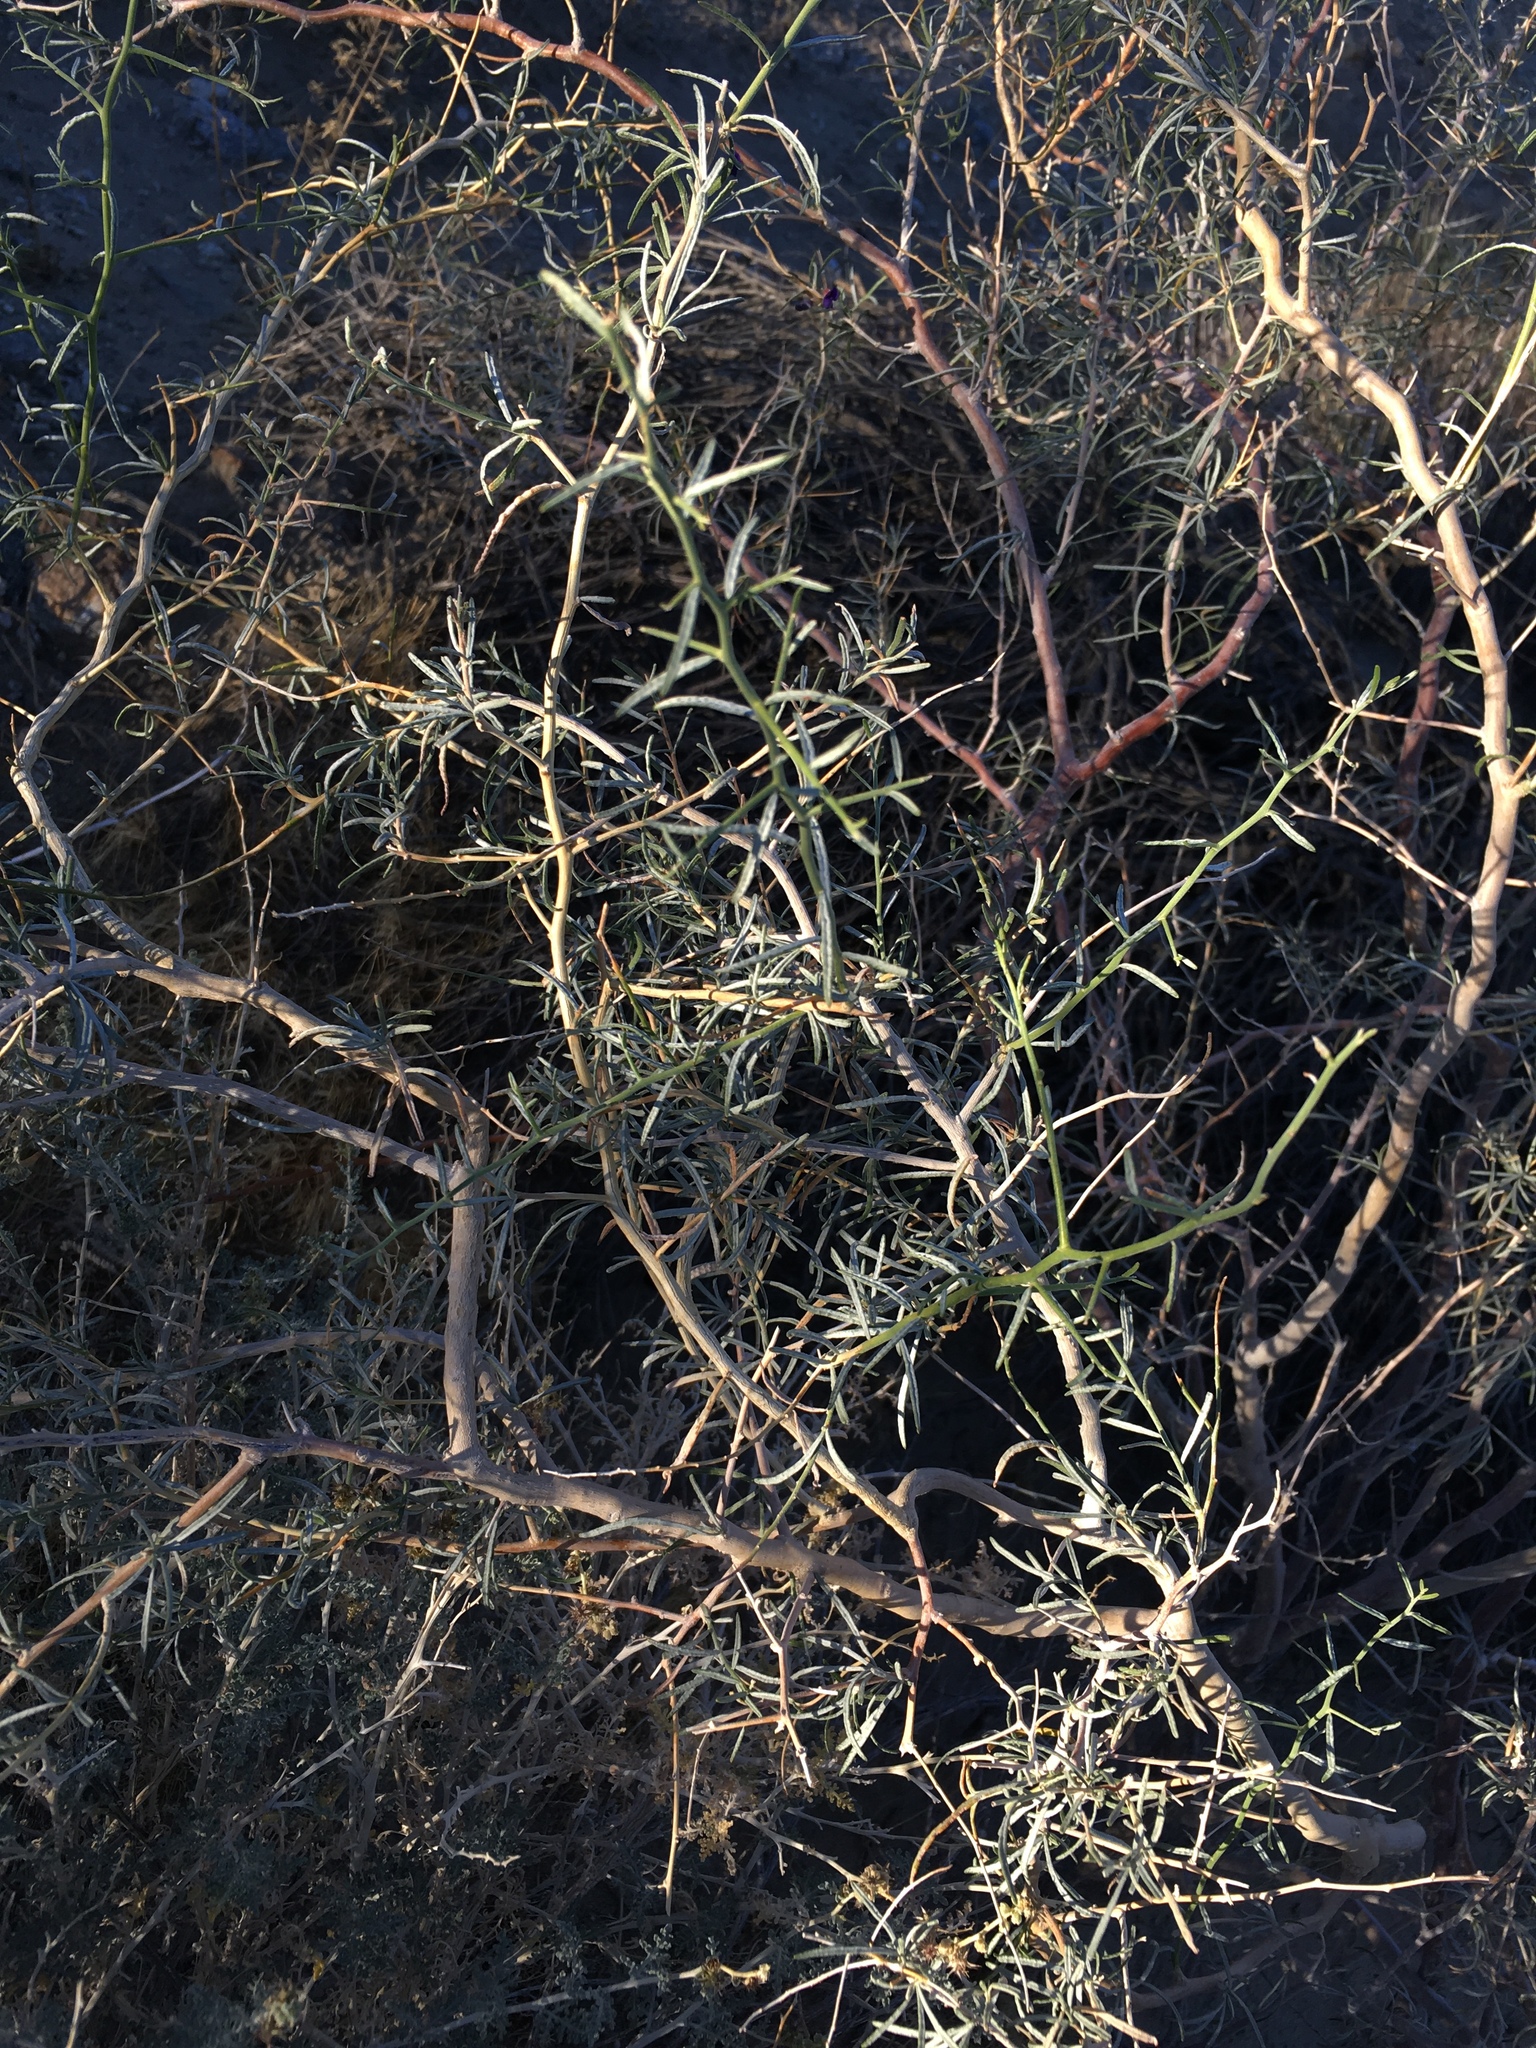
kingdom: Plantae
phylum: Tracheophyta
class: Magnoliopsida
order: Fabales
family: Fabaceae
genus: Psorothamnus
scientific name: Psorothamnus schottii
